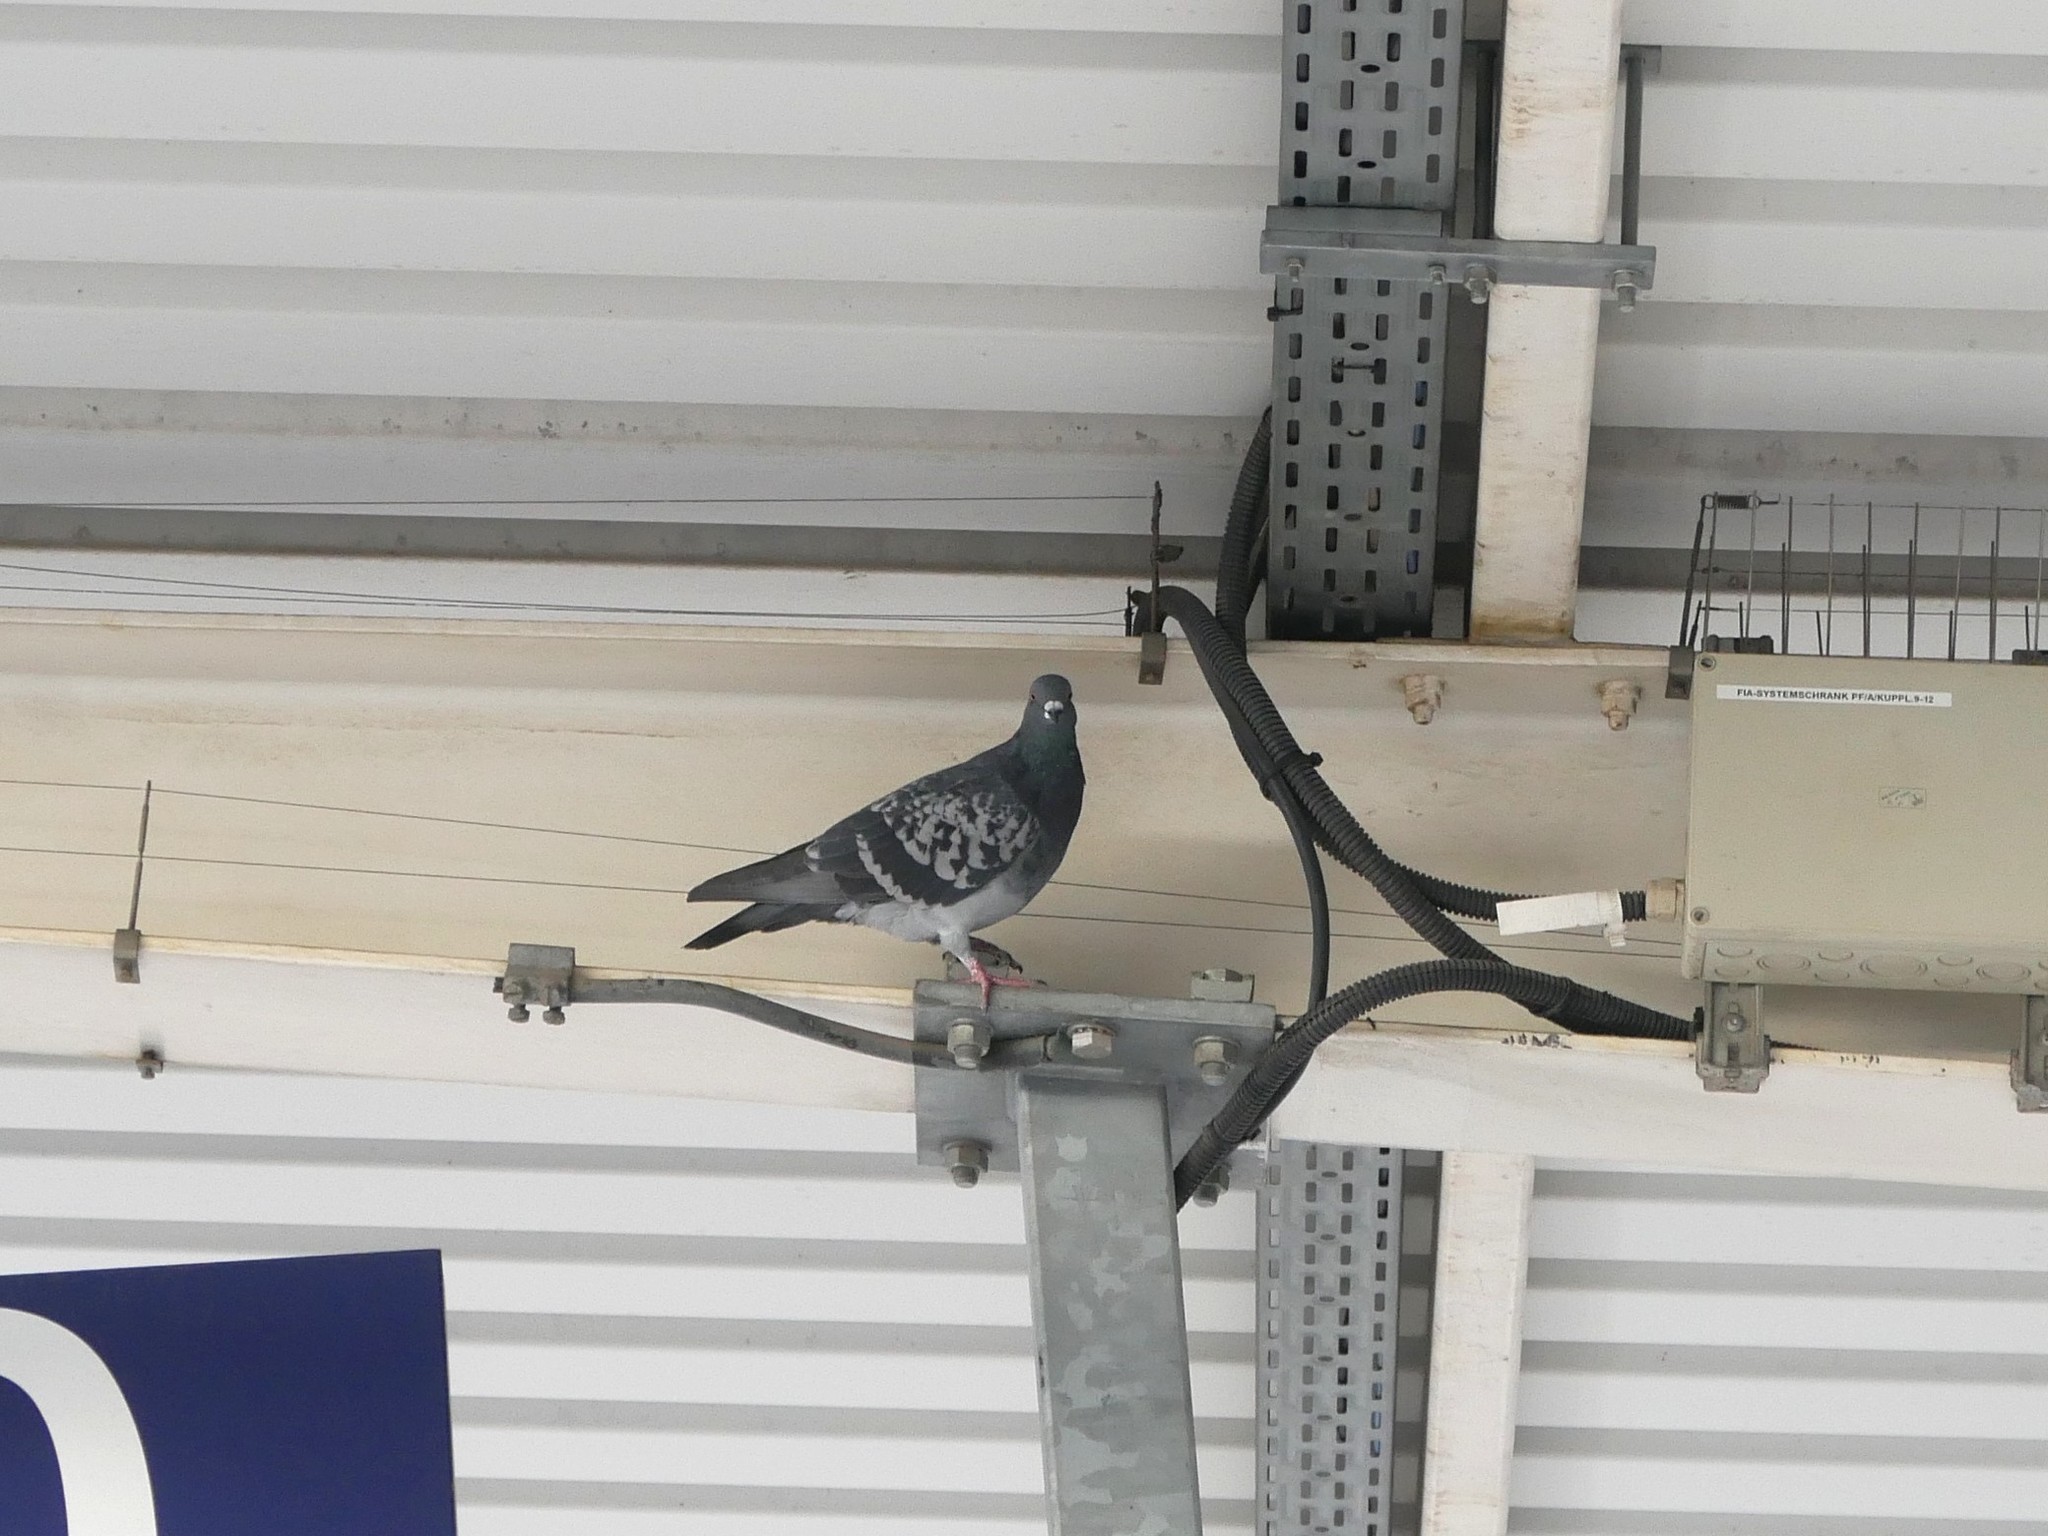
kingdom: Animalia
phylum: Chordata
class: Aves
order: Columbiformes
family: Columbidae
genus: Columba
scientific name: Columba livia
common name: Rock pigeon
